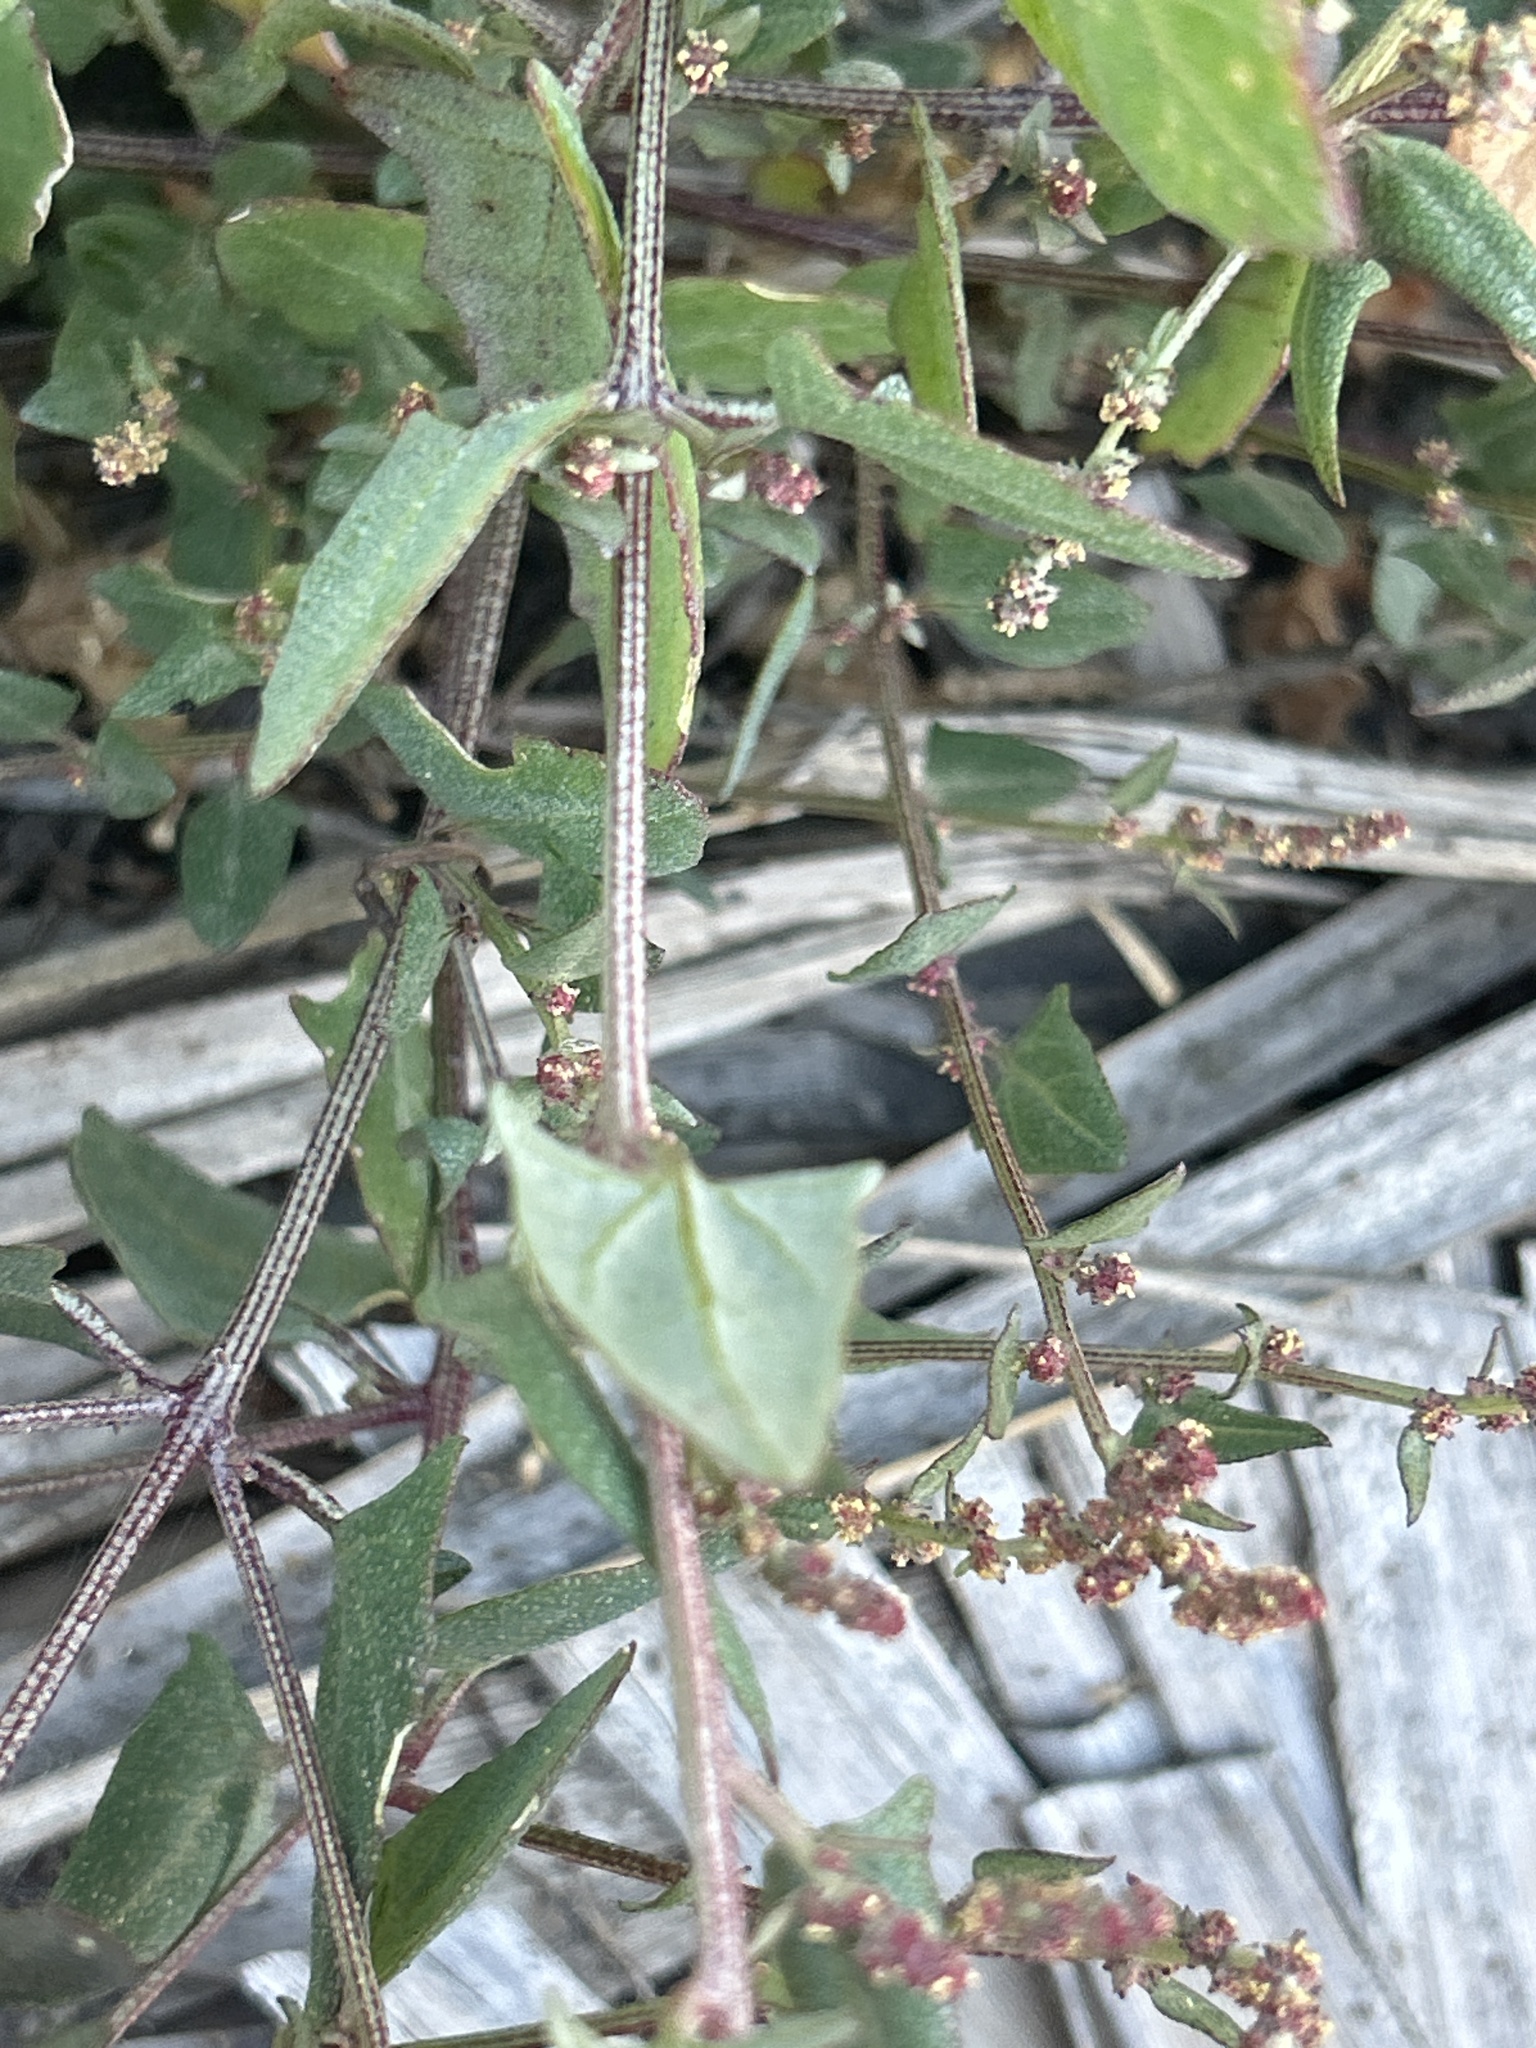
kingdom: Plantae
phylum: Tracheophyta
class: Magnoliopsida
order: Caryophyllales
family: Amaranthaceae
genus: Atriplex
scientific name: Atriplex prostrata
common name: Spear-leaved orache
